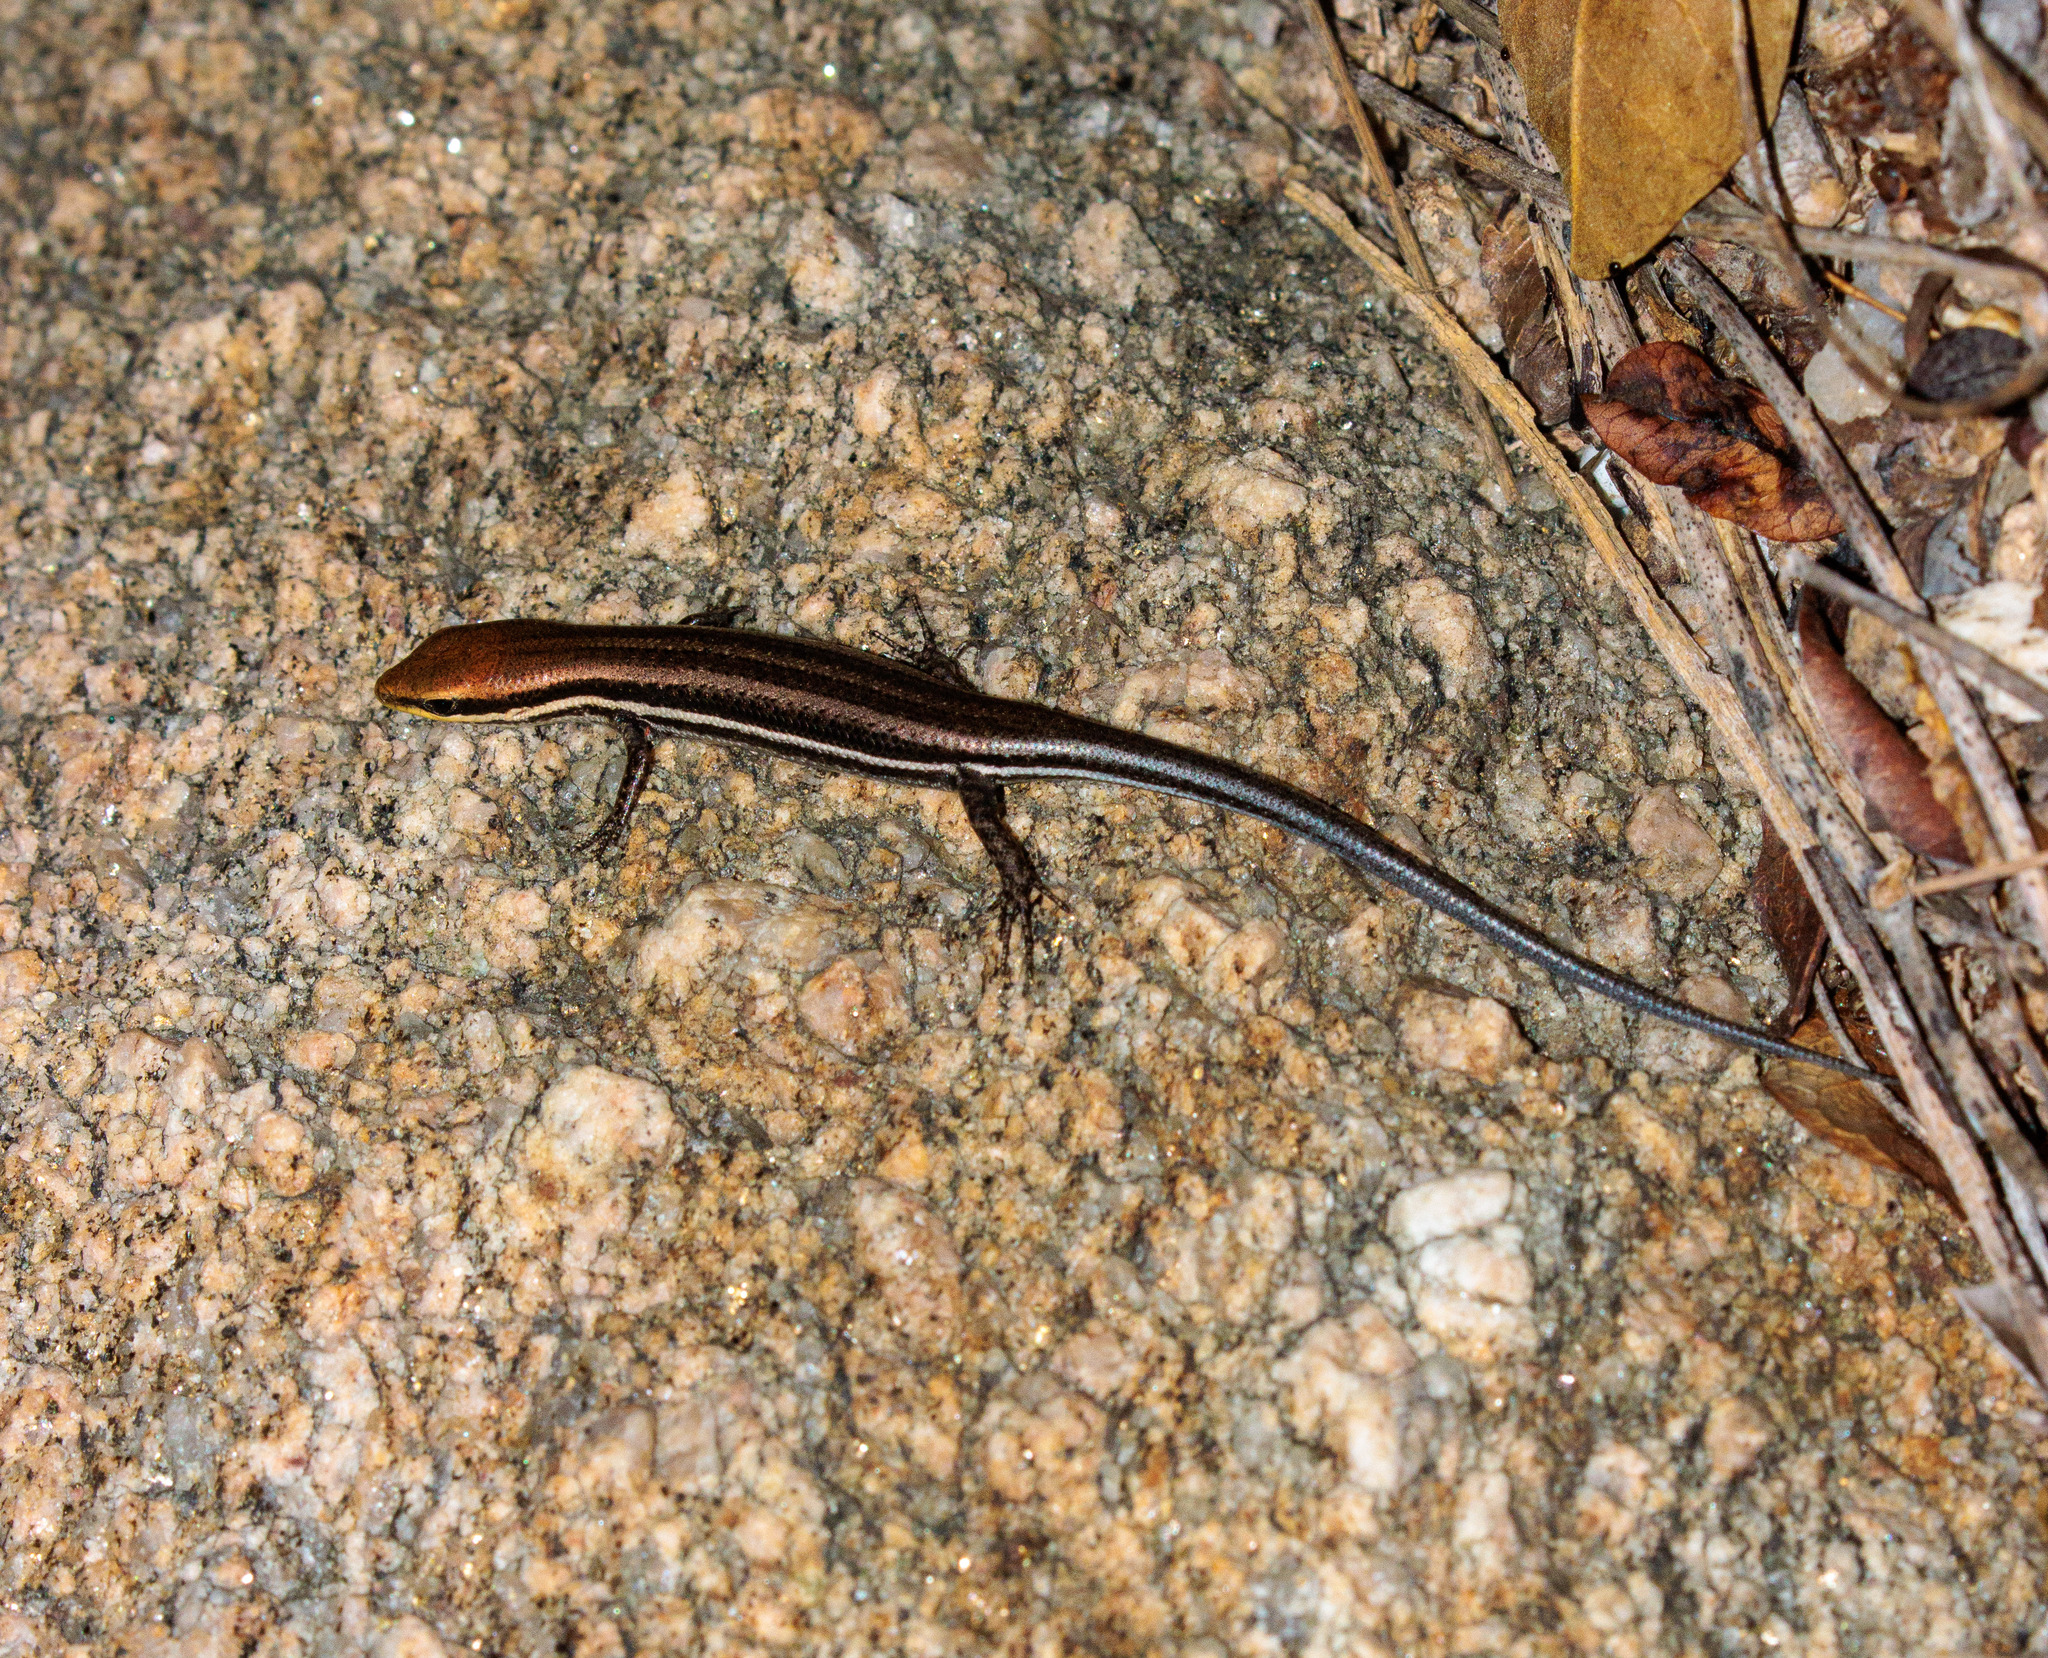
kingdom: Animalia
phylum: Chordata
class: Squamata
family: Scincidae
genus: Brasiliscincus
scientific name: Brasiliscincus heathi
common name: Brazilian mabuya
